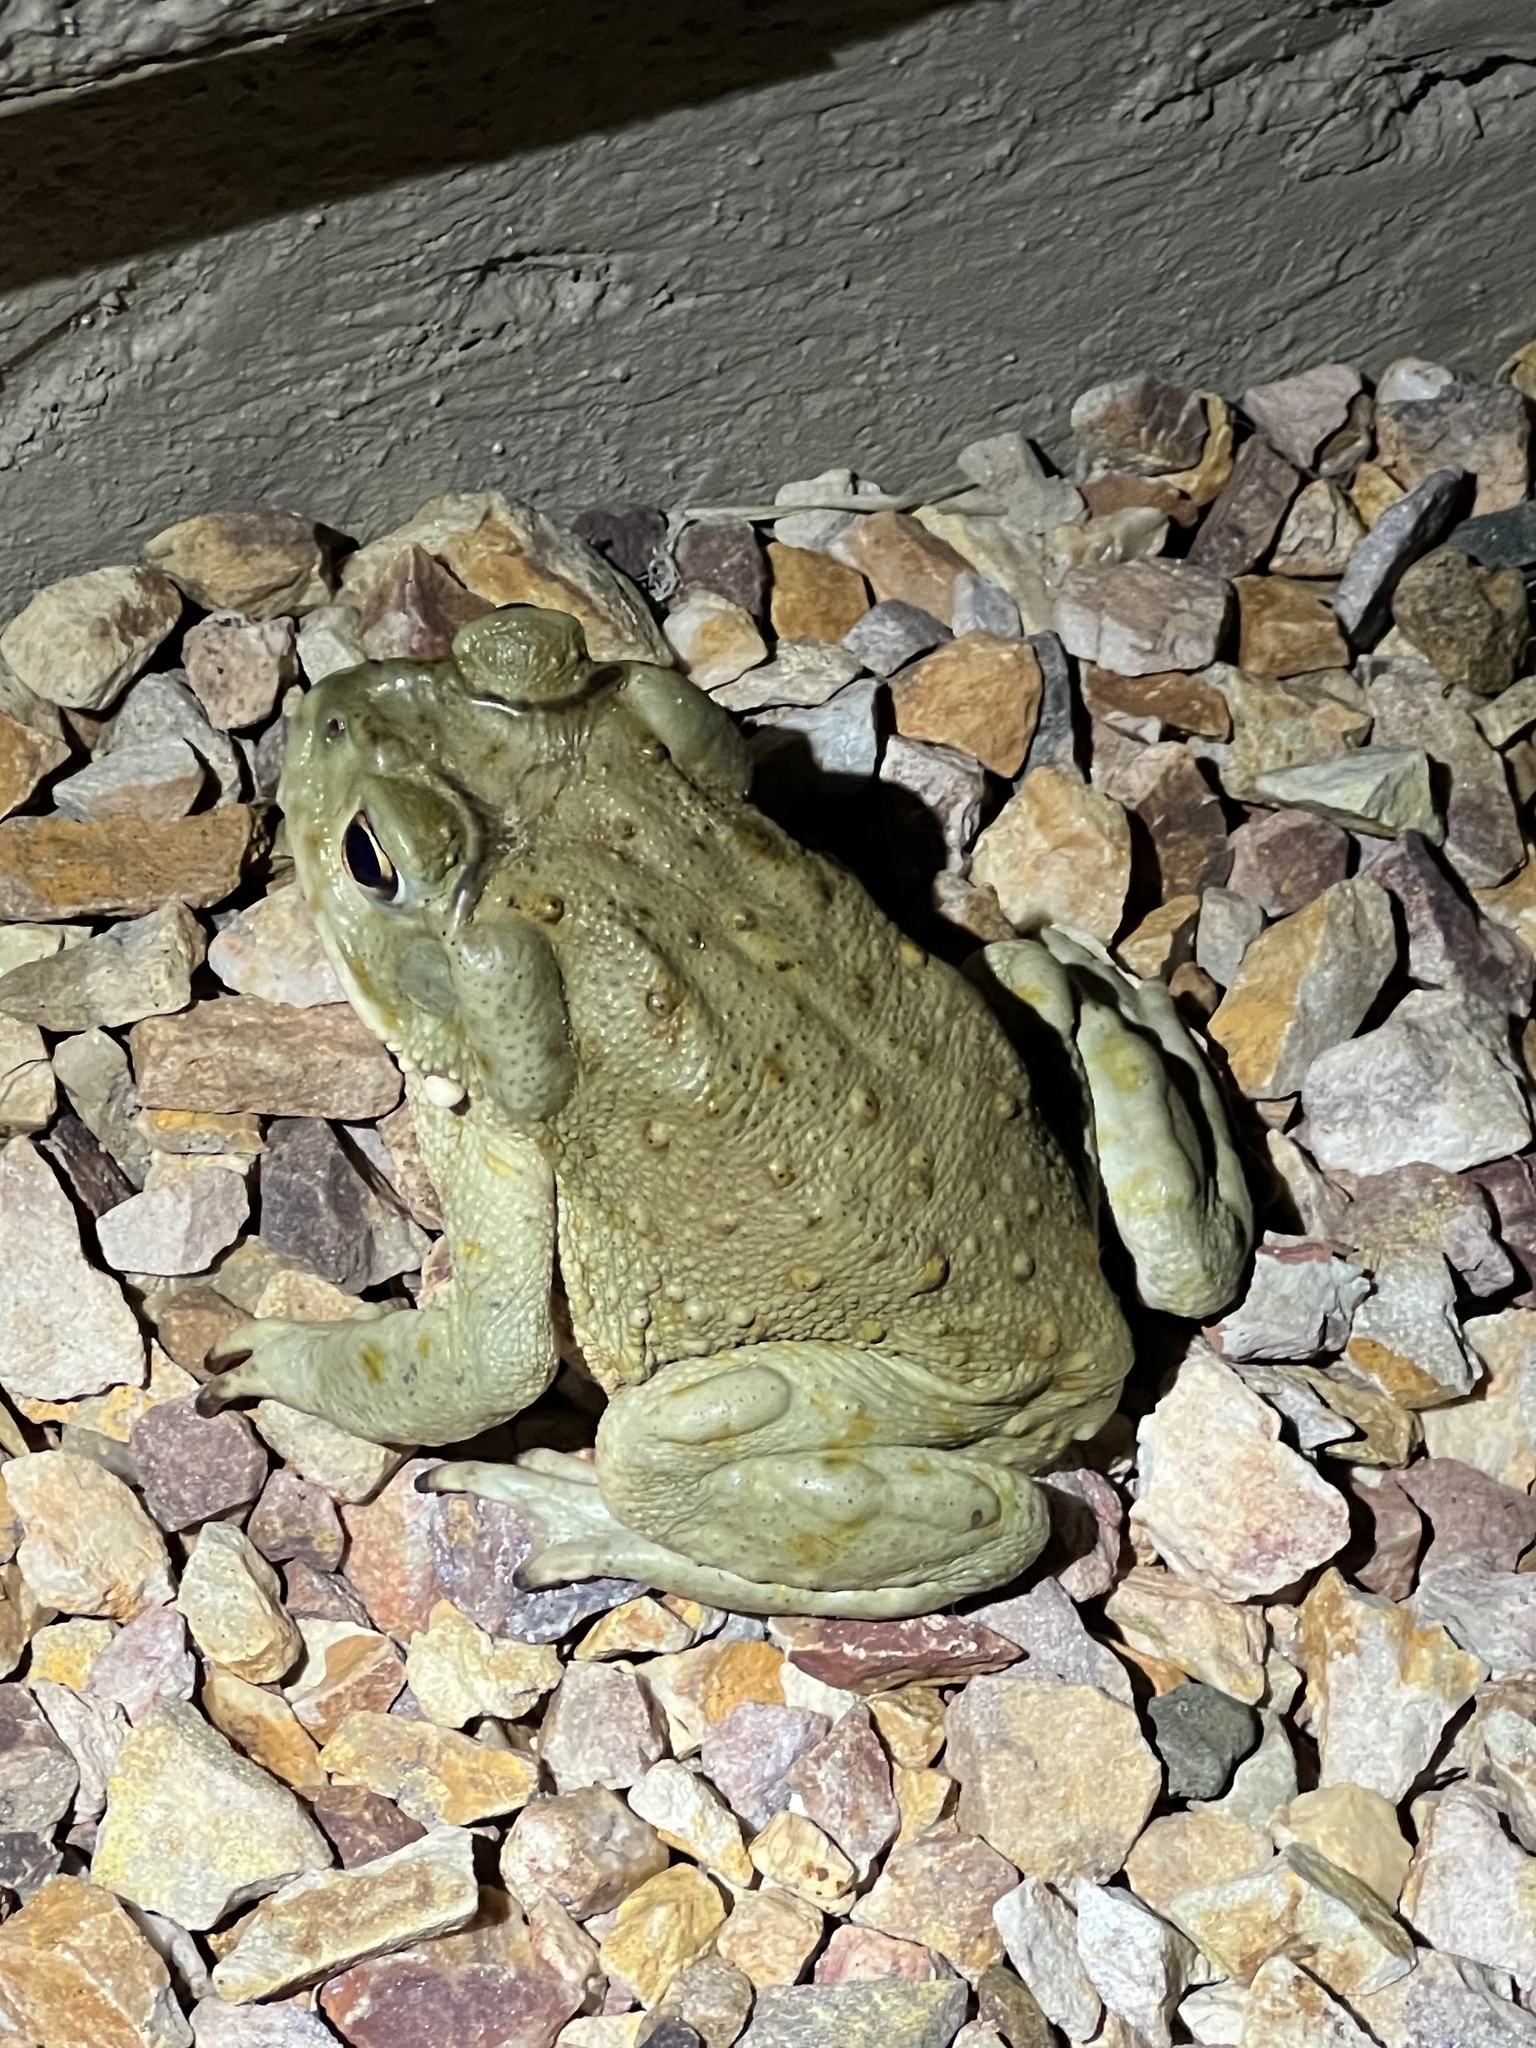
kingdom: Animalia
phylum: Chordata
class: Amphibia
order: Anura
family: Bufonidae
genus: Incilius
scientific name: Incilius alvarius
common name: Sonoran desert toad
